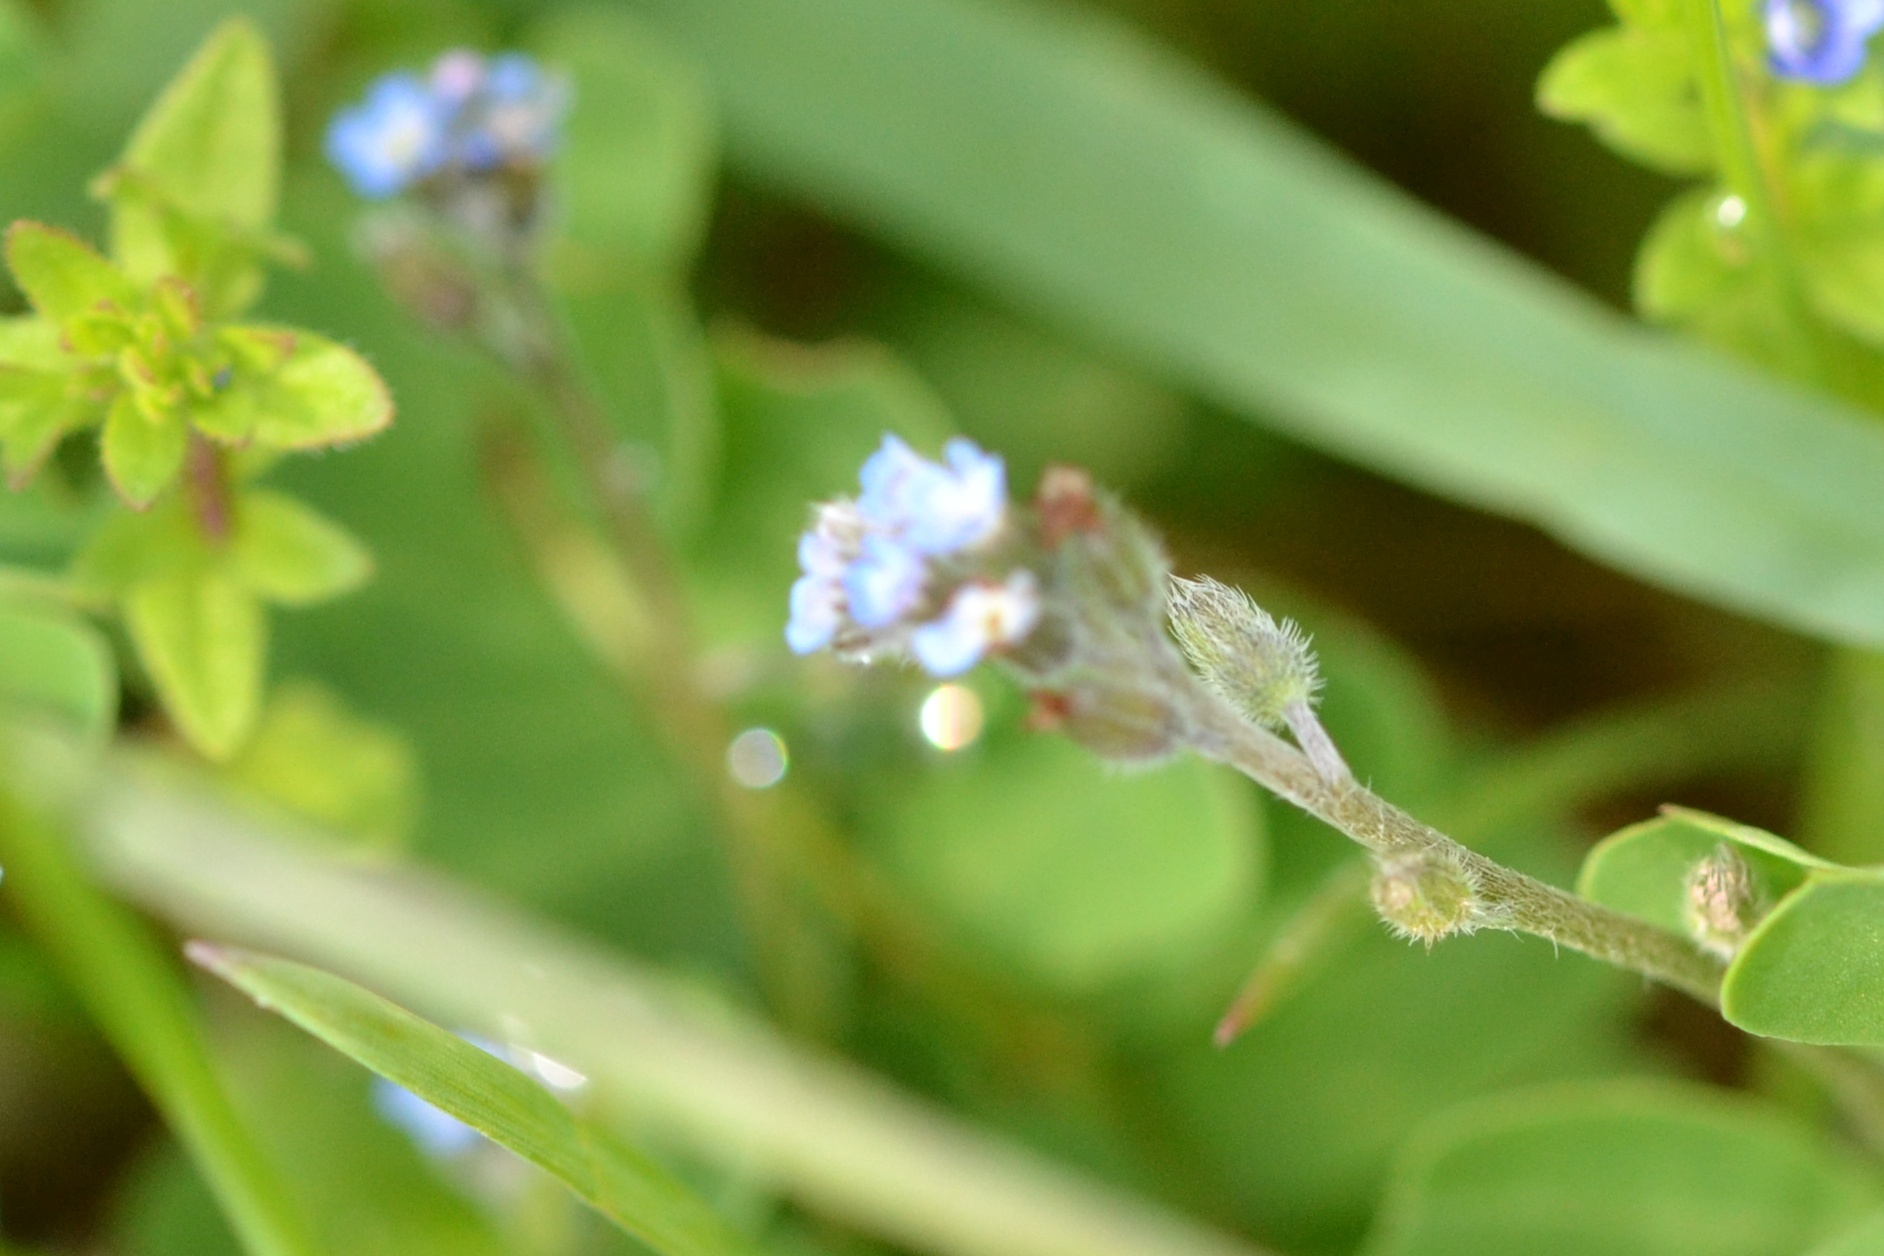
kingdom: Plantae
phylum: Tracheophyta
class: Magnoliopsida
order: Boraginales
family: Boraginaceae
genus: Myosotis
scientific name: Myosotis ramosissima
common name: Early forget-me-not
